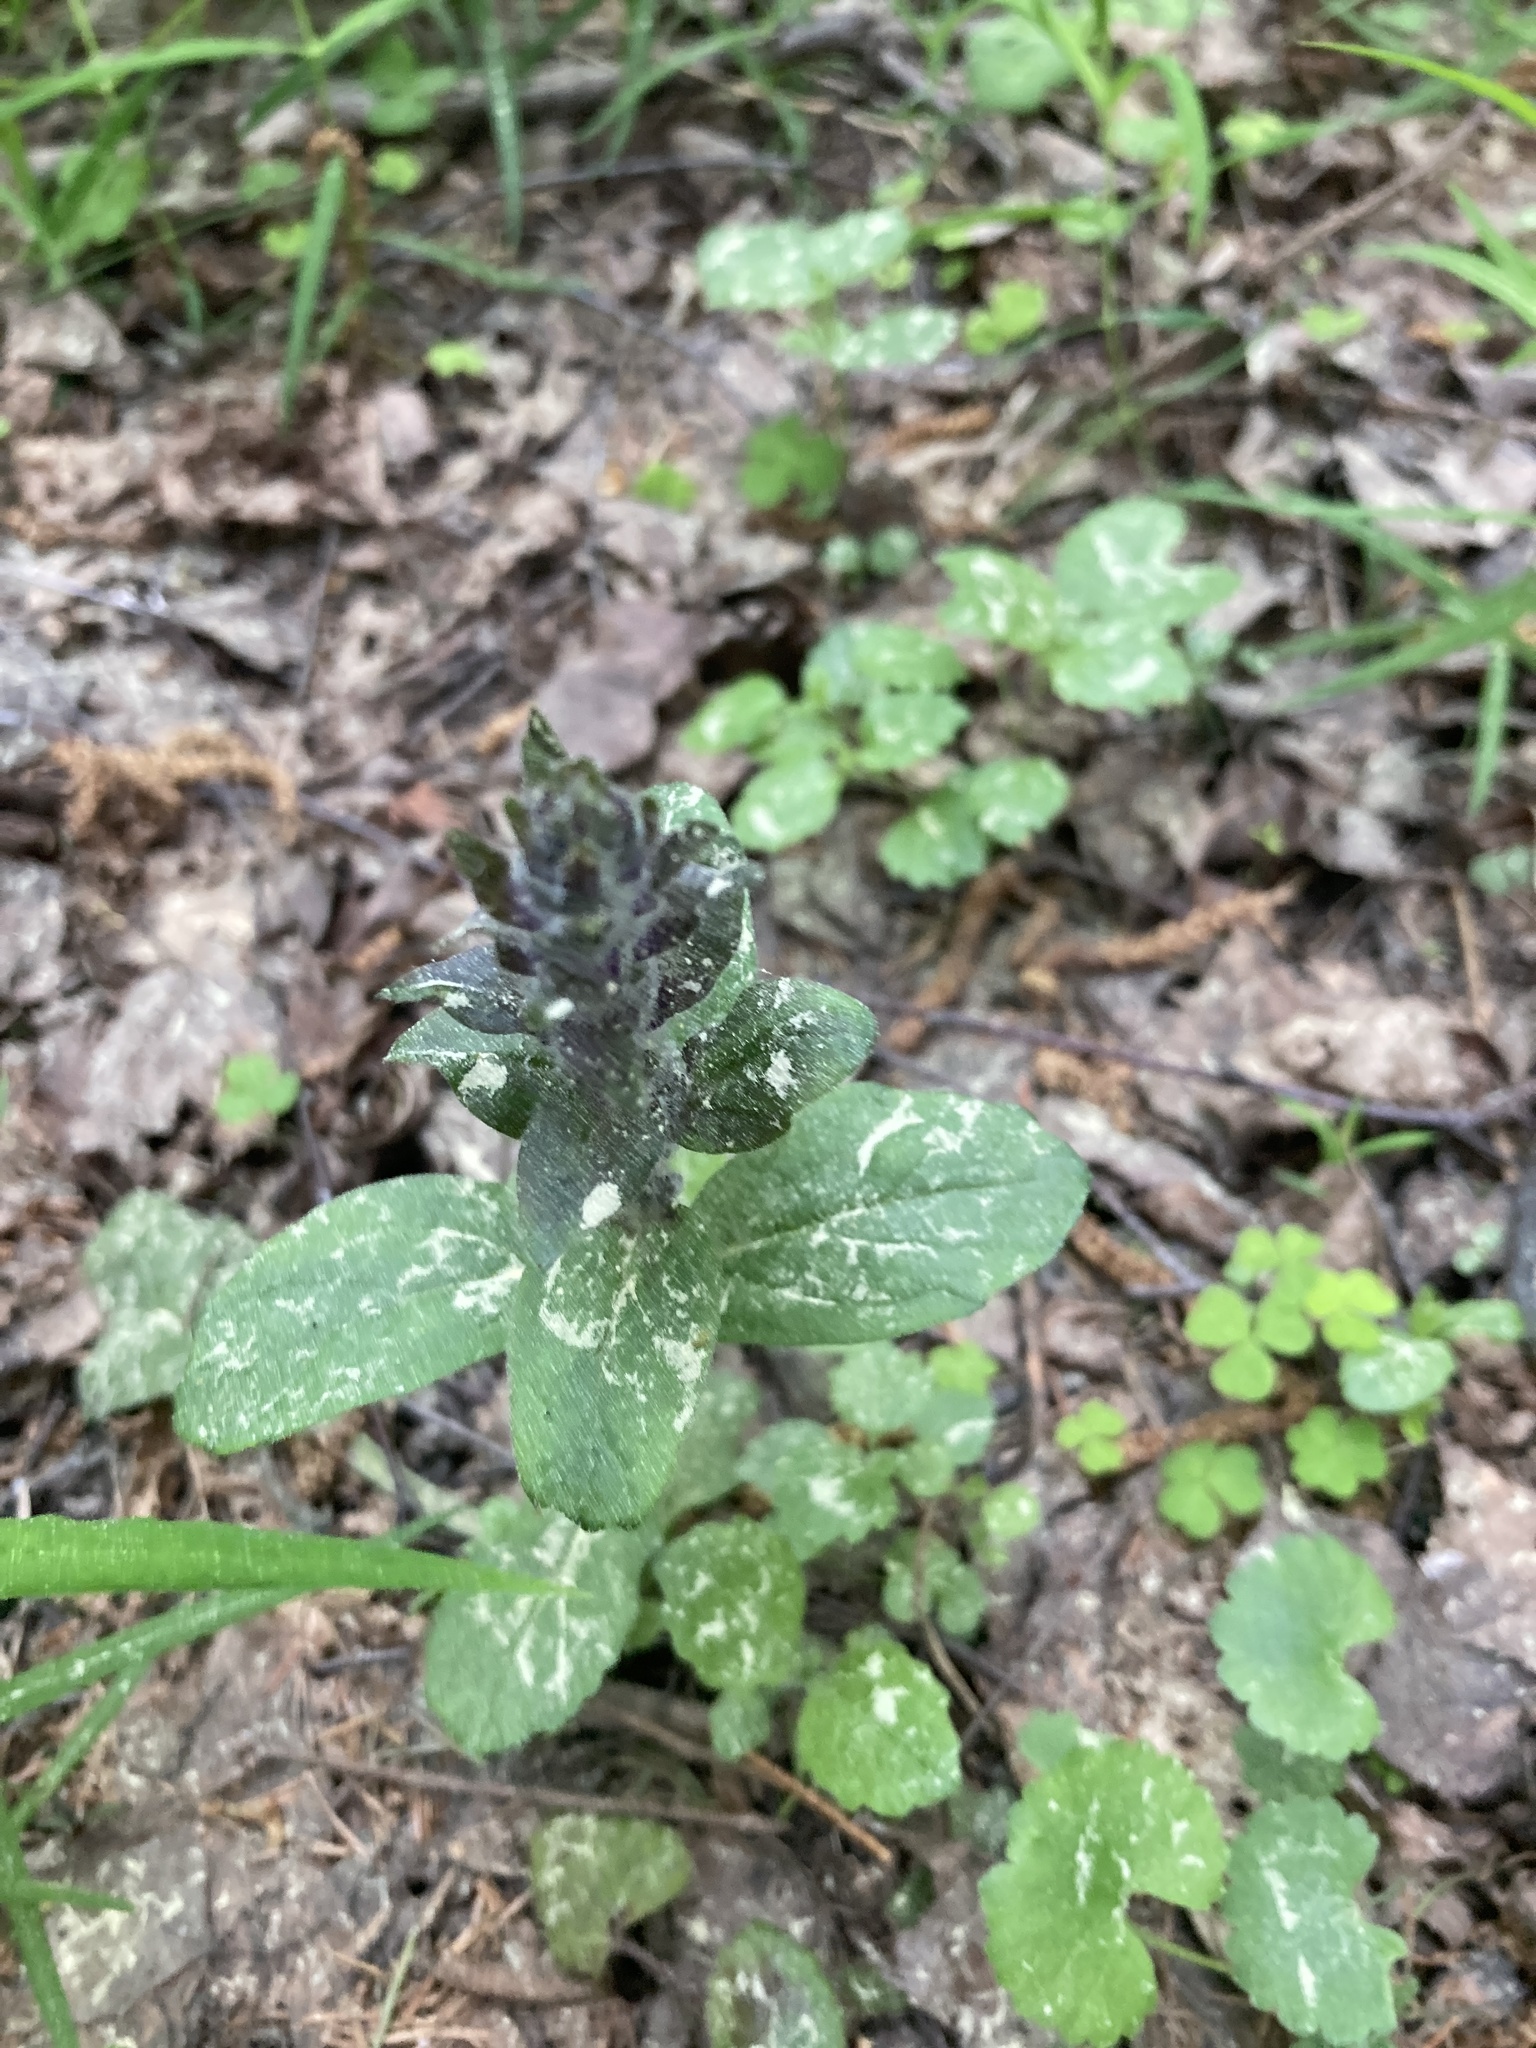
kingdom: Plantae
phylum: Tracheophyta
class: Magnoliopsida
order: Lamiales
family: Lamiaceae
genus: Ajuga
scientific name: Ajuga reptans
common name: Bugle
